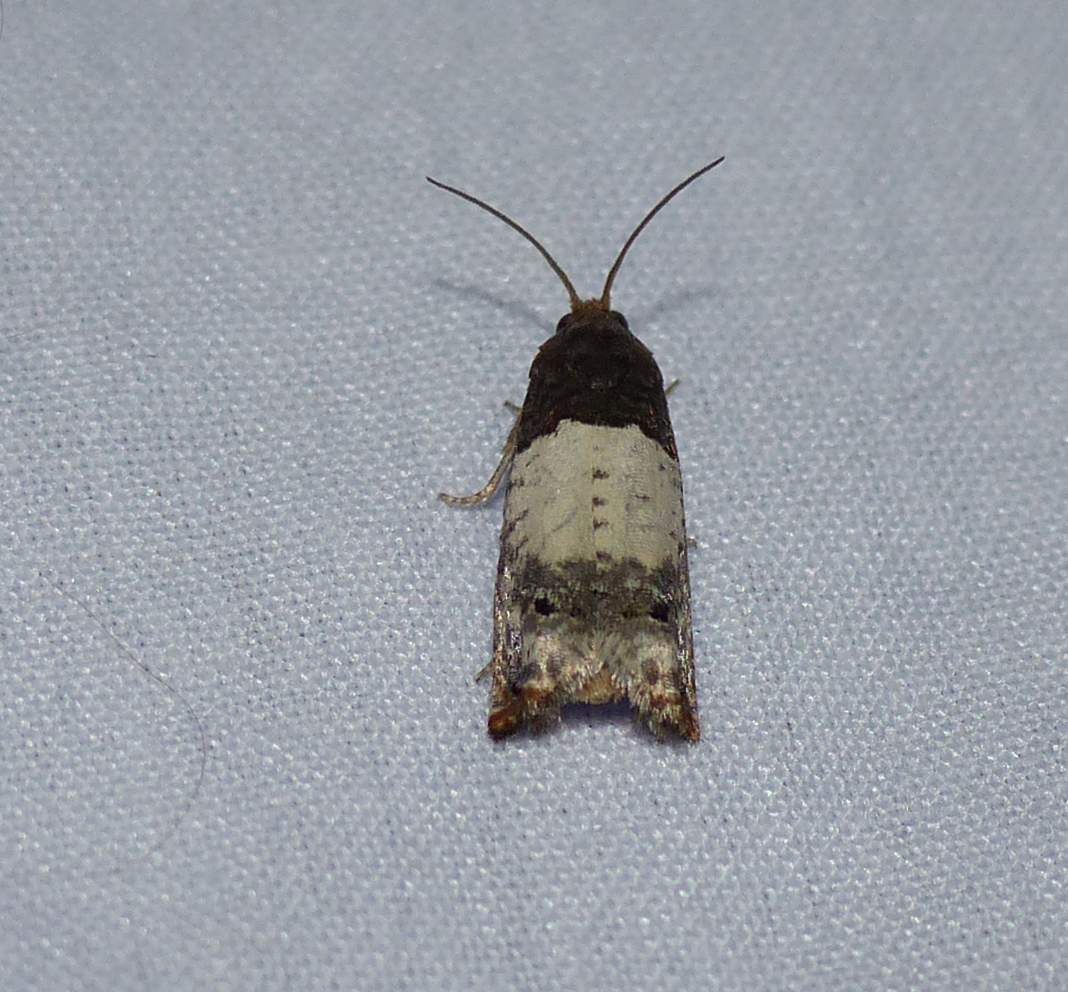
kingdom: Animalia
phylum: Arthropoda
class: Insecta
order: Lepidoptera
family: Tortricidae
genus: Epiblema
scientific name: Epiblema scudderiana
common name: Goldenrod gall moth
